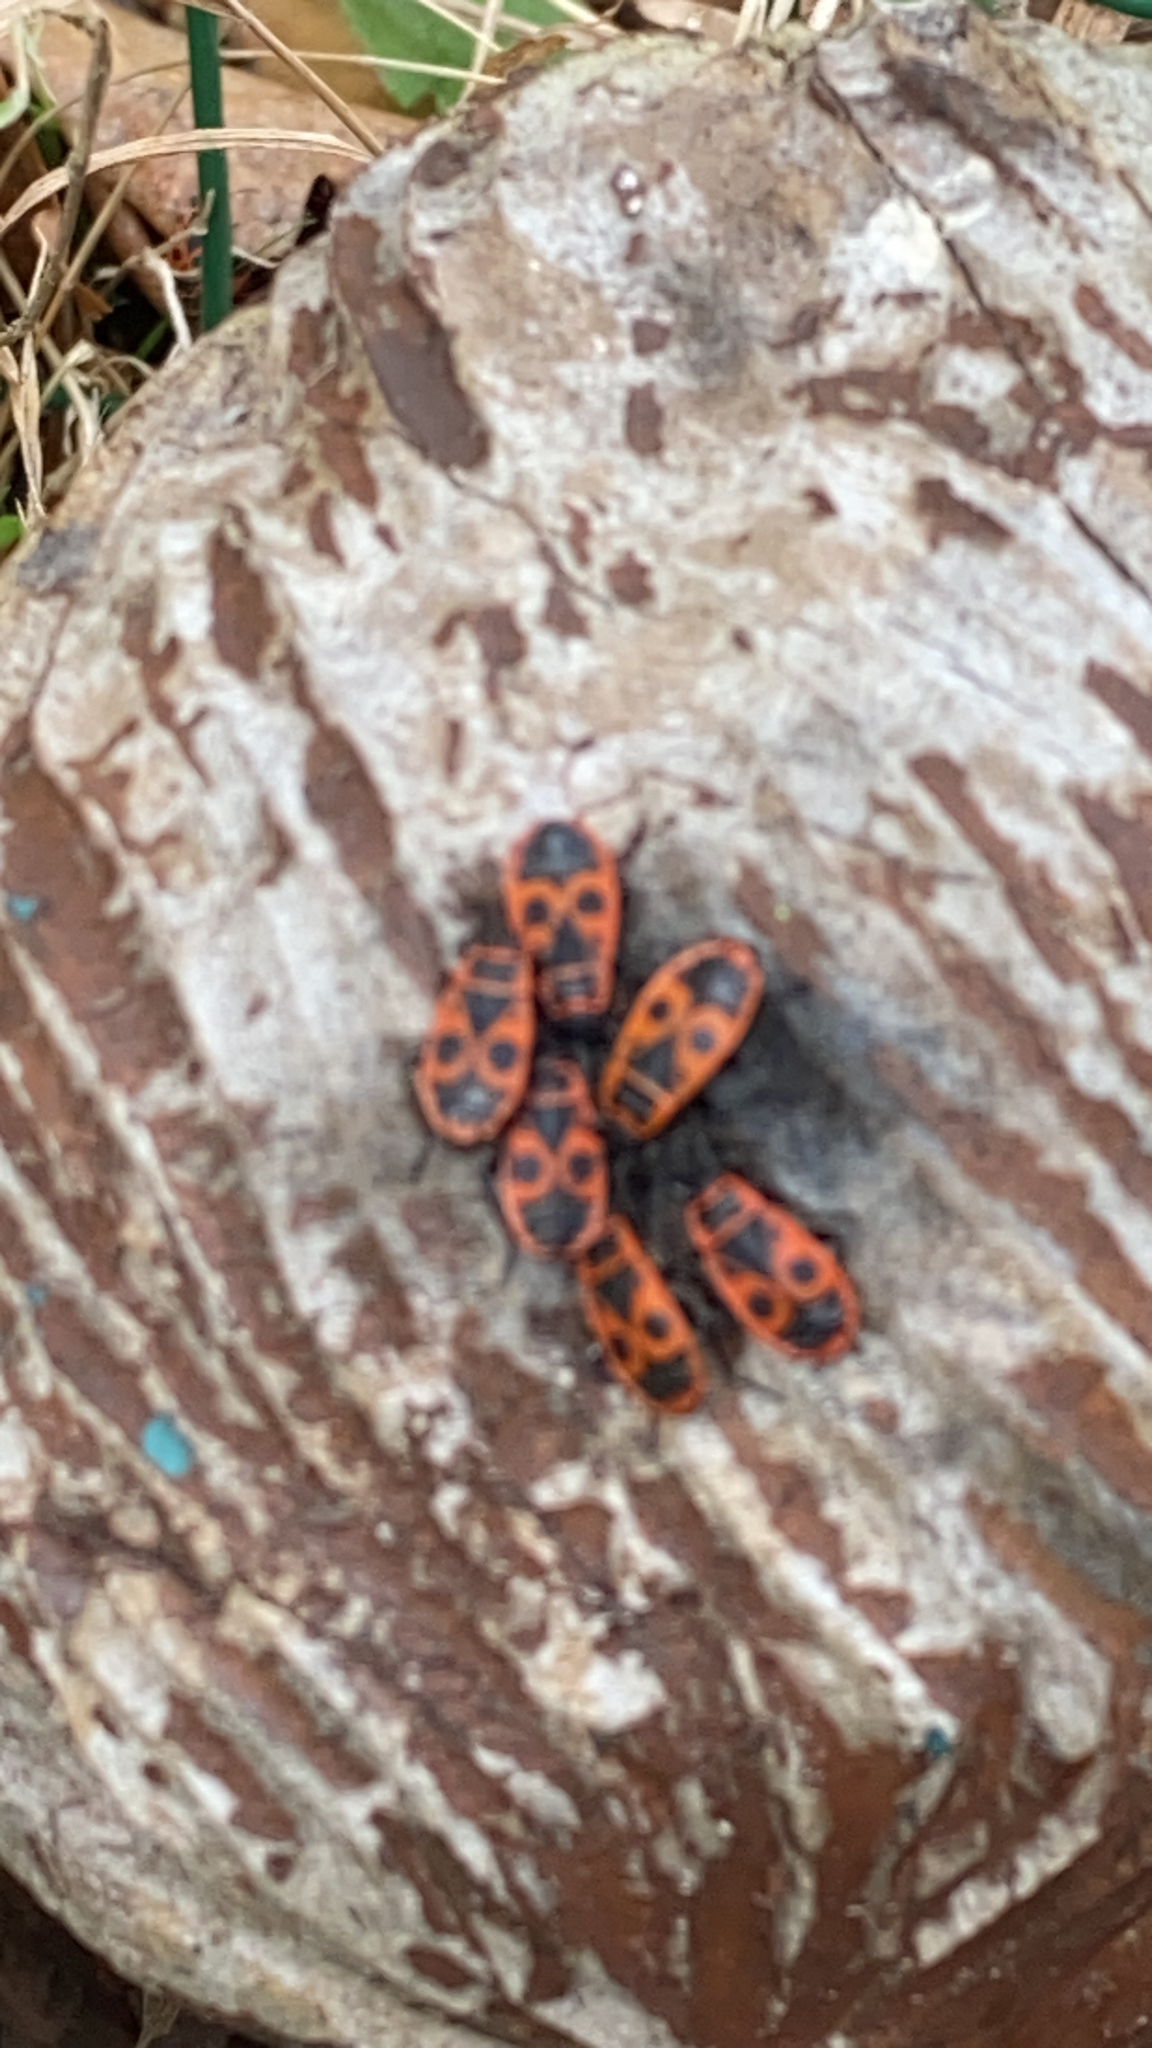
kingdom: Animalia
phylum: Arthropoda
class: Insecta
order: Hemiptera
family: Pyrrhocoridae
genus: Pyrrhocoris
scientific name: Pyrrhocoris apterus
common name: Firebug
